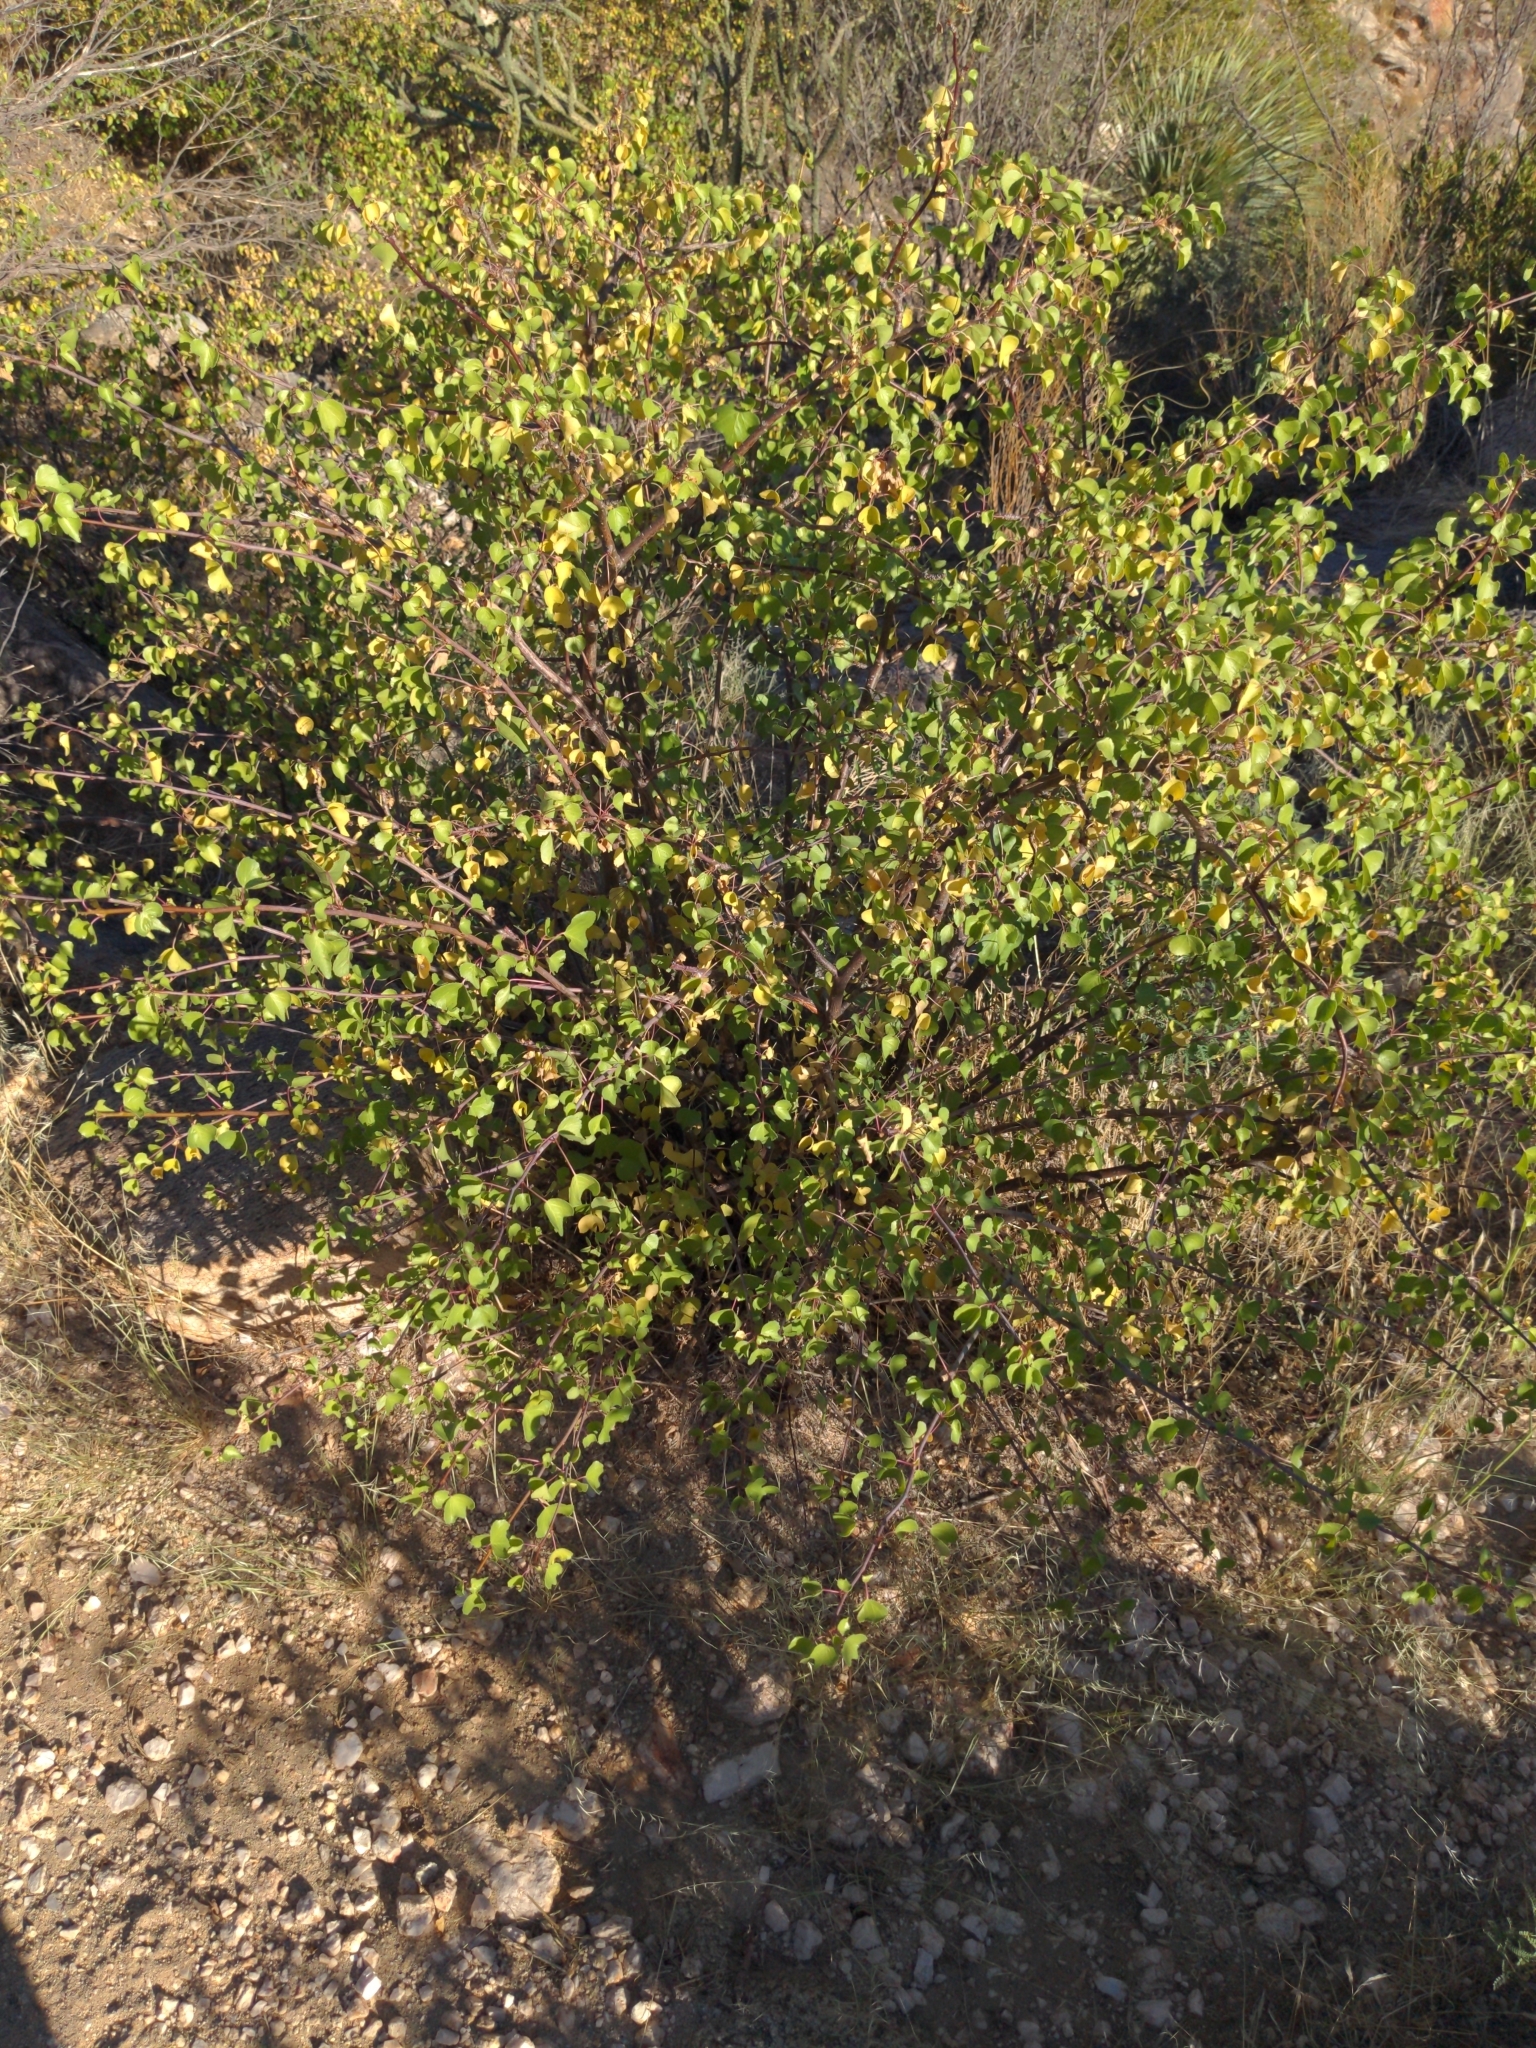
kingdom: Plantae
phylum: Tracheophyta
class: Magnoliopsida
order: Malpighiales
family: Euphorbiaceae
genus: Jatropha
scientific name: Jatropha cardiophylla
